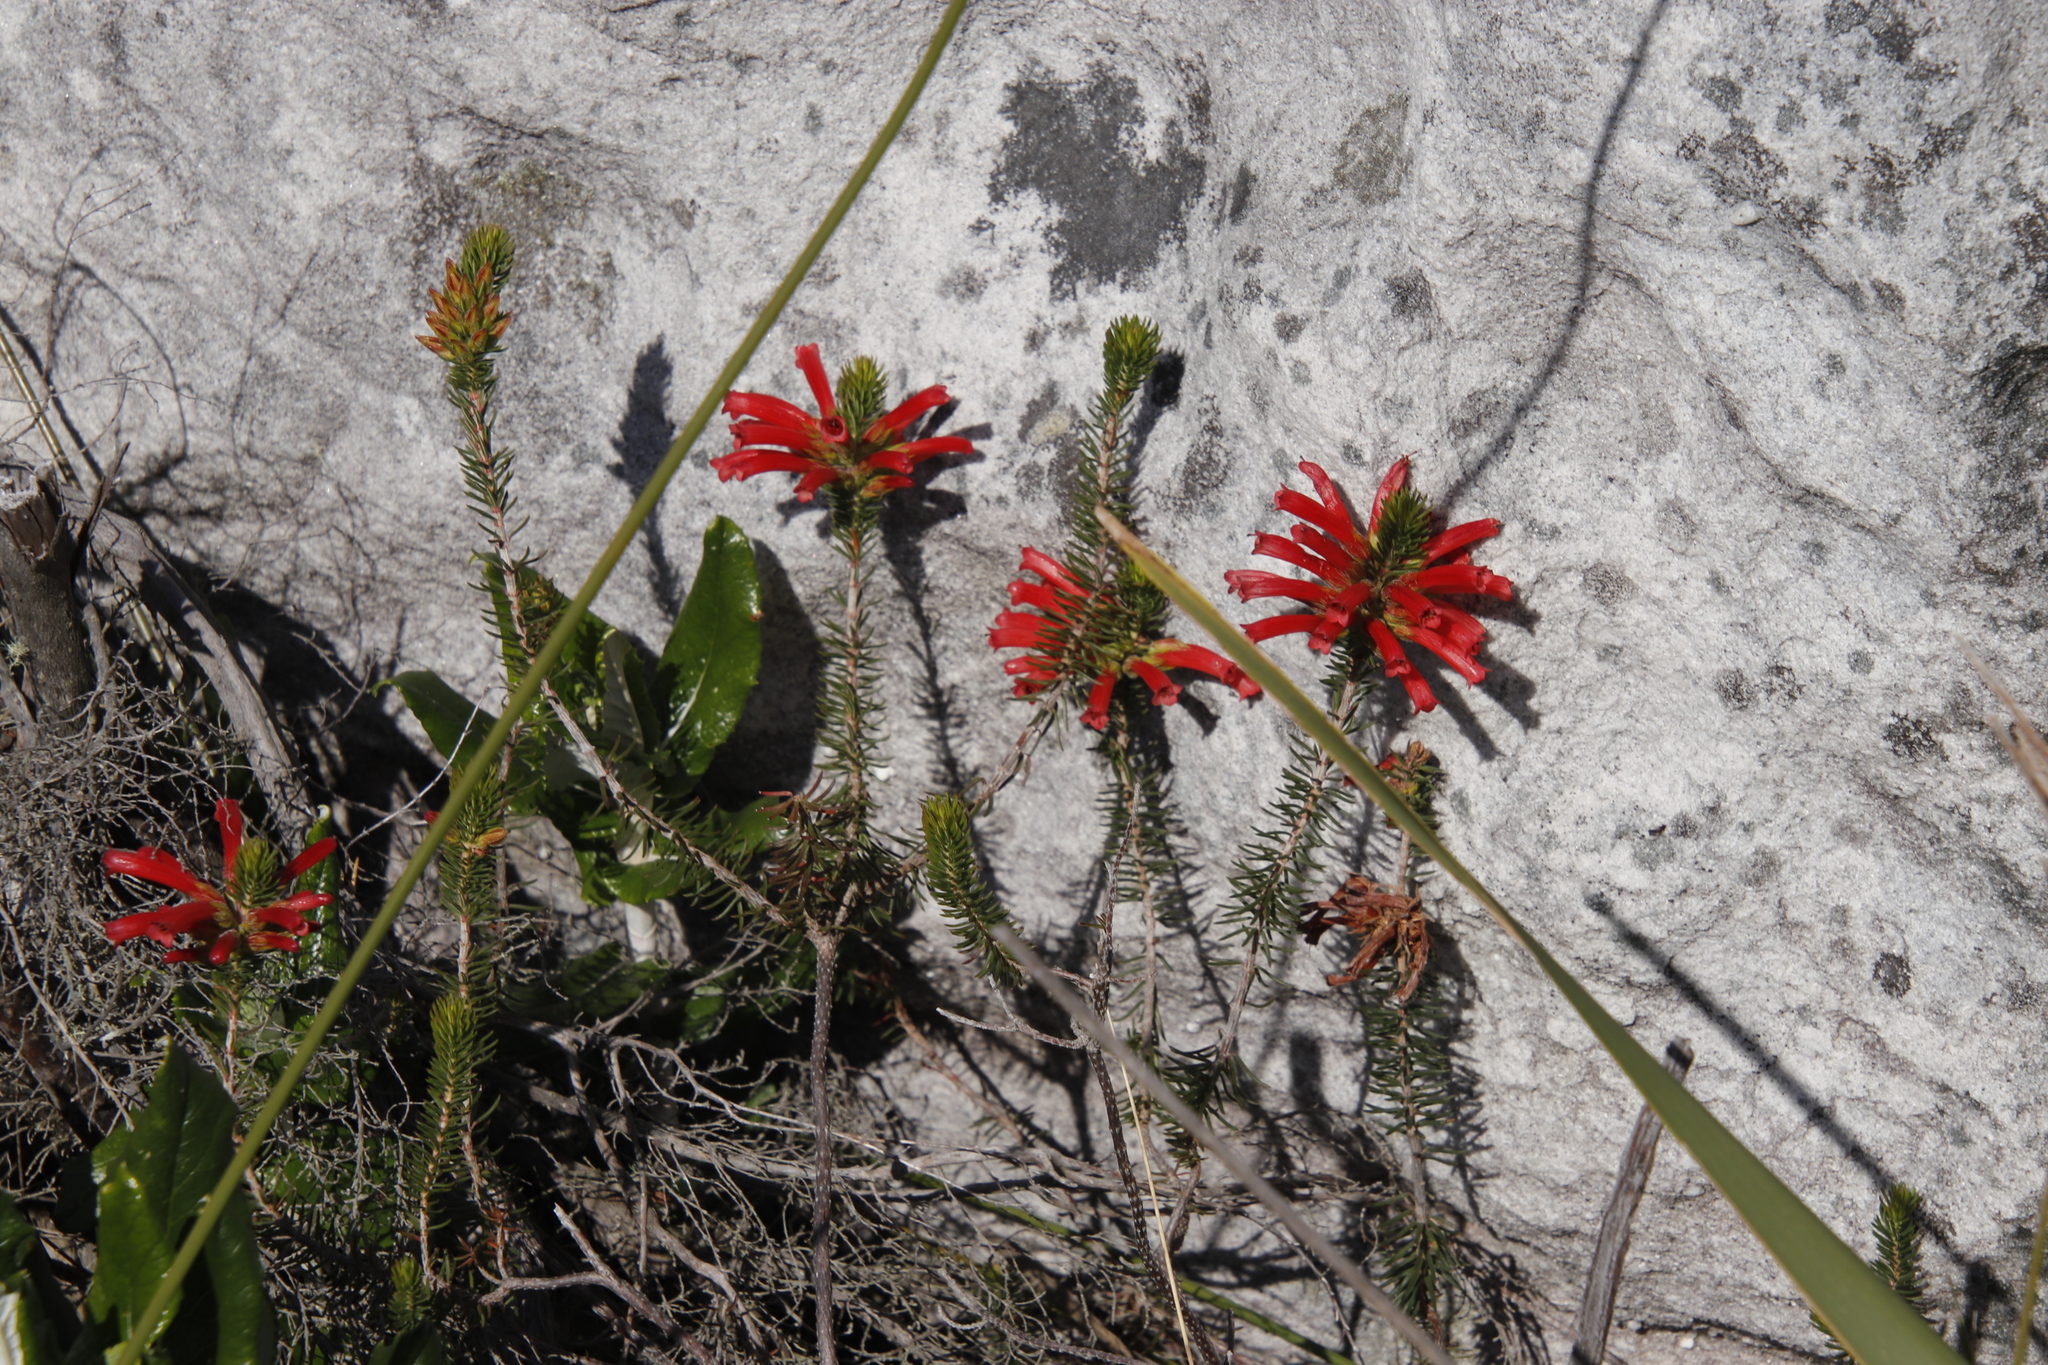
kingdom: Plantae
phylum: Tracheophyta
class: Magnoliopsida
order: Ericales
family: Ericaceae
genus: Erica
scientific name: Erica abietina
